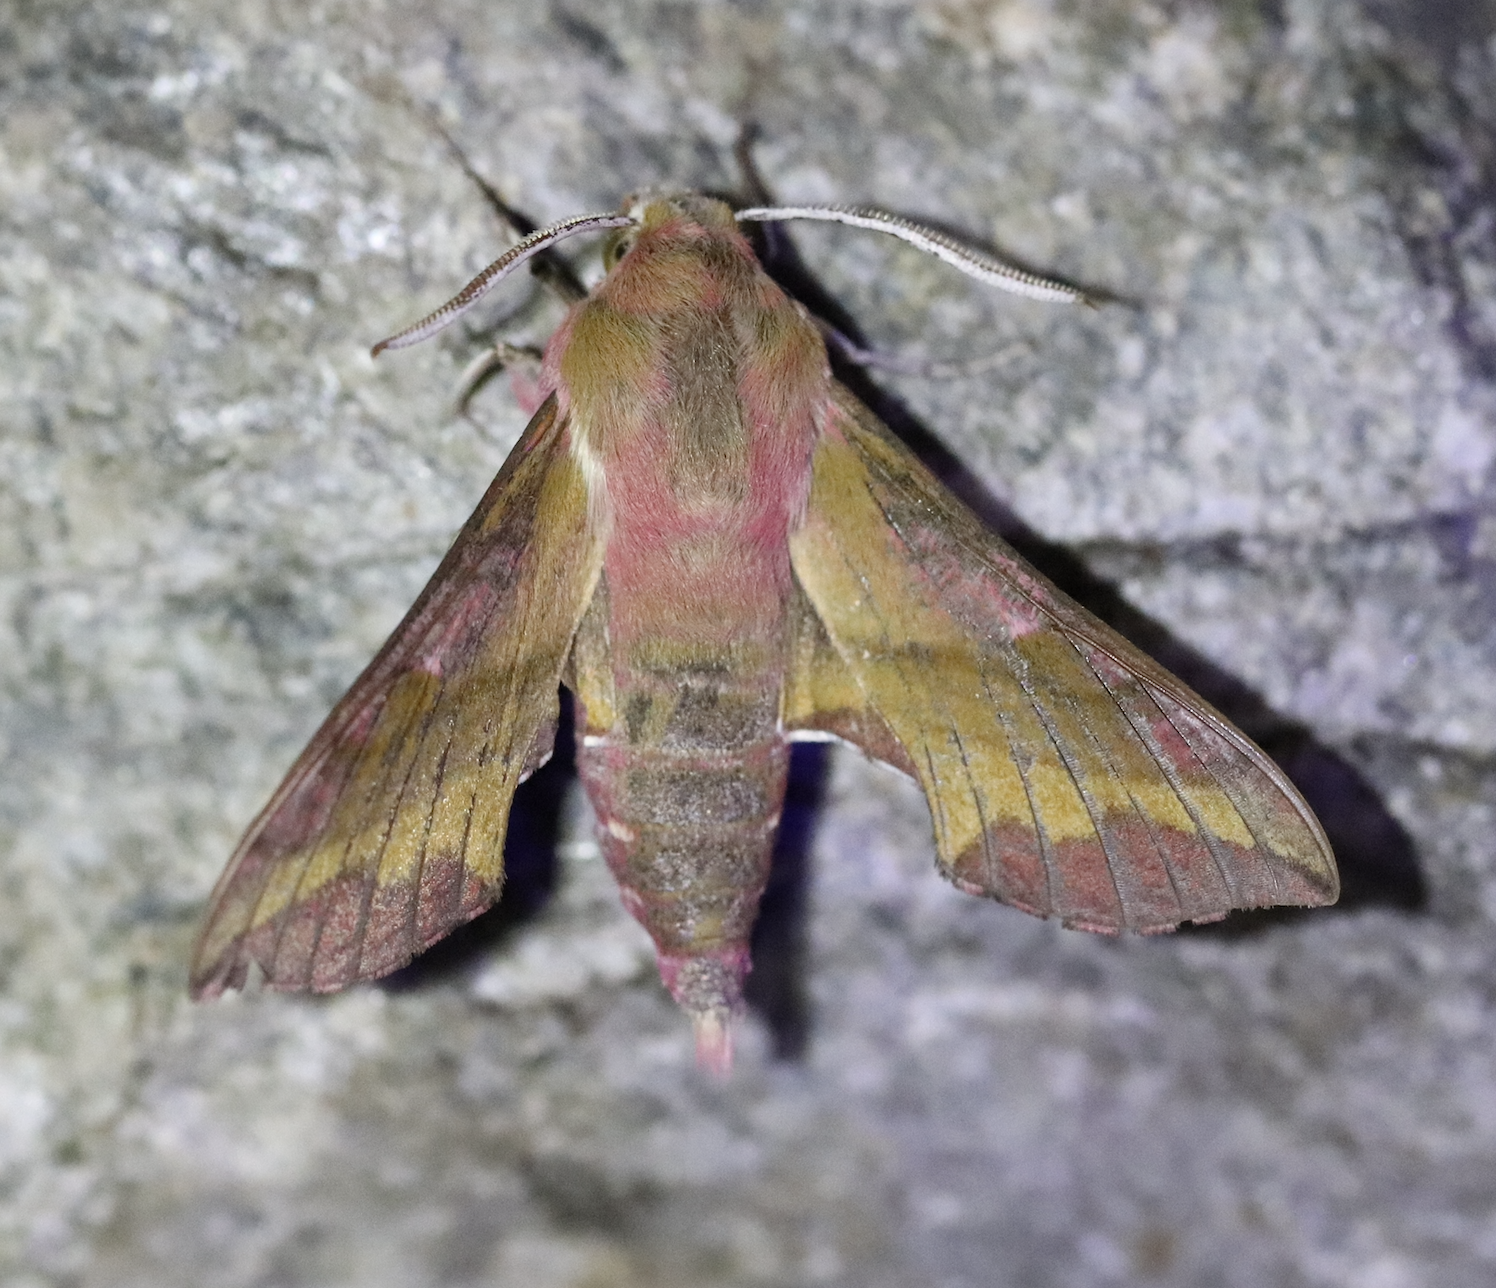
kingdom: Animalia
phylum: Arthropoda
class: Insecta
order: Lepidoptera
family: Sphingidae
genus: Deilephila
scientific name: Deilephila porcellus
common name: Small elephant hawk-moth
